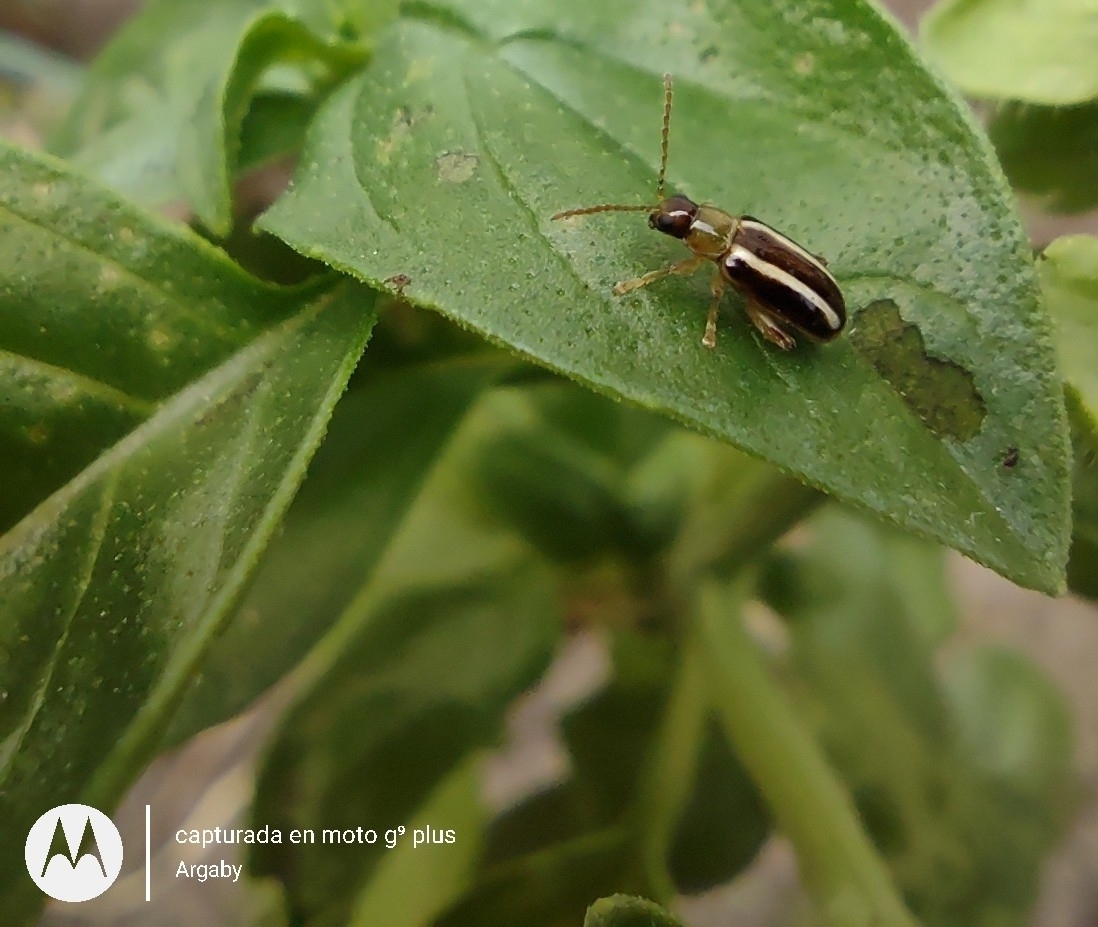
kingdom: Animalia
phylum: Arthropoda
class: Insecta
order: Coleoptera
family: Chrysomelidae
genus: Systena
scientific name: Systena
